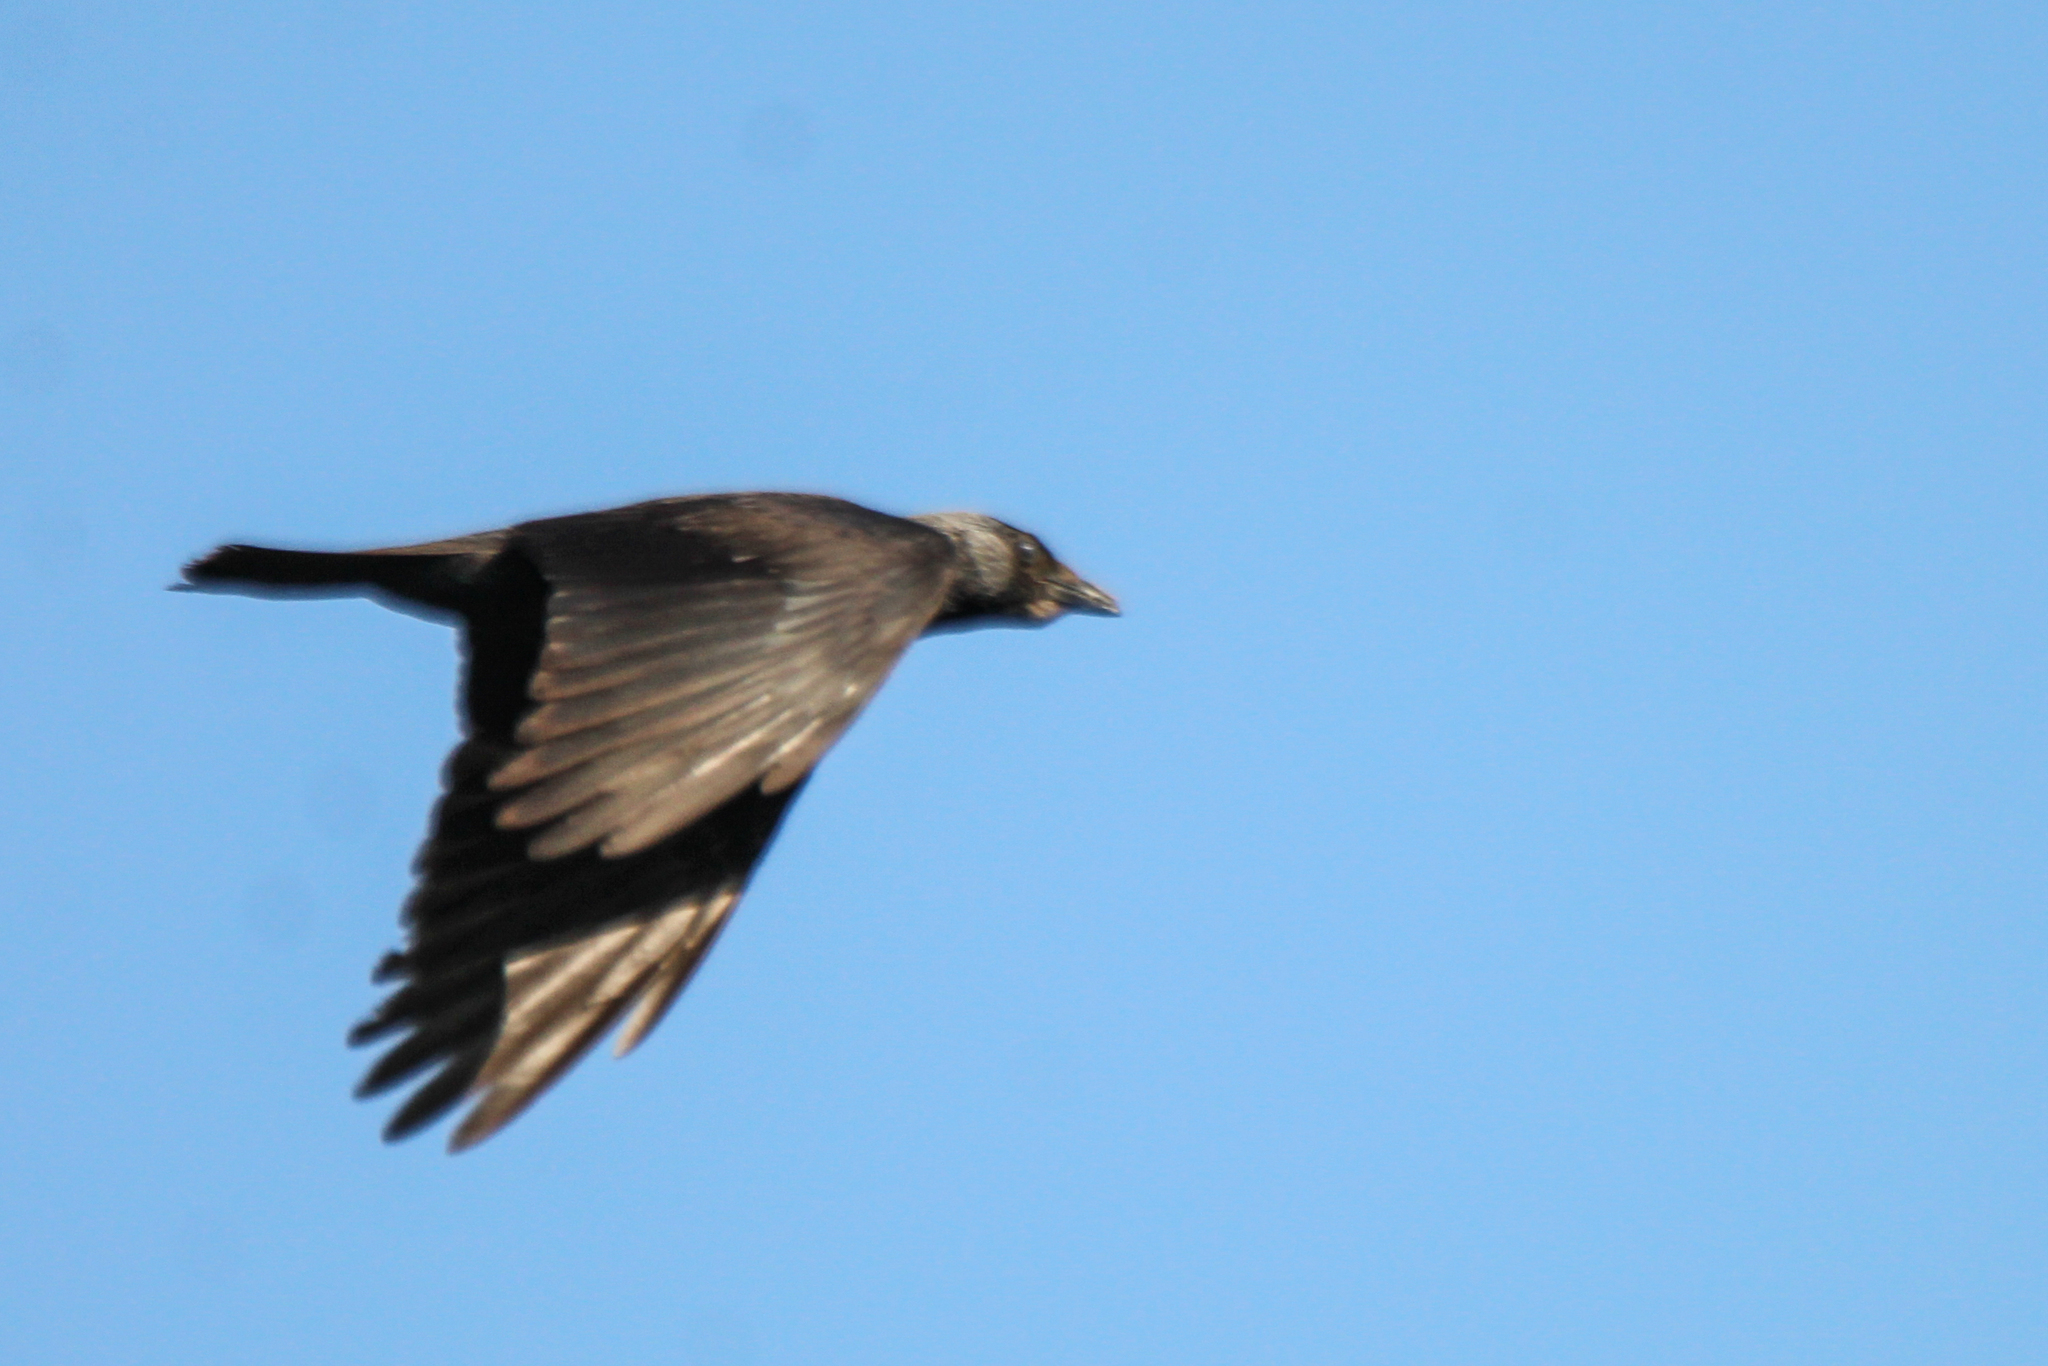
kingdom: Animalia
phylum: Chordata
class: Aves
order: Passeriformes
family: Corvidae
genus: Coloeus
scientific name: Coloeus dauuricus
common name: Daurian jackdaw
